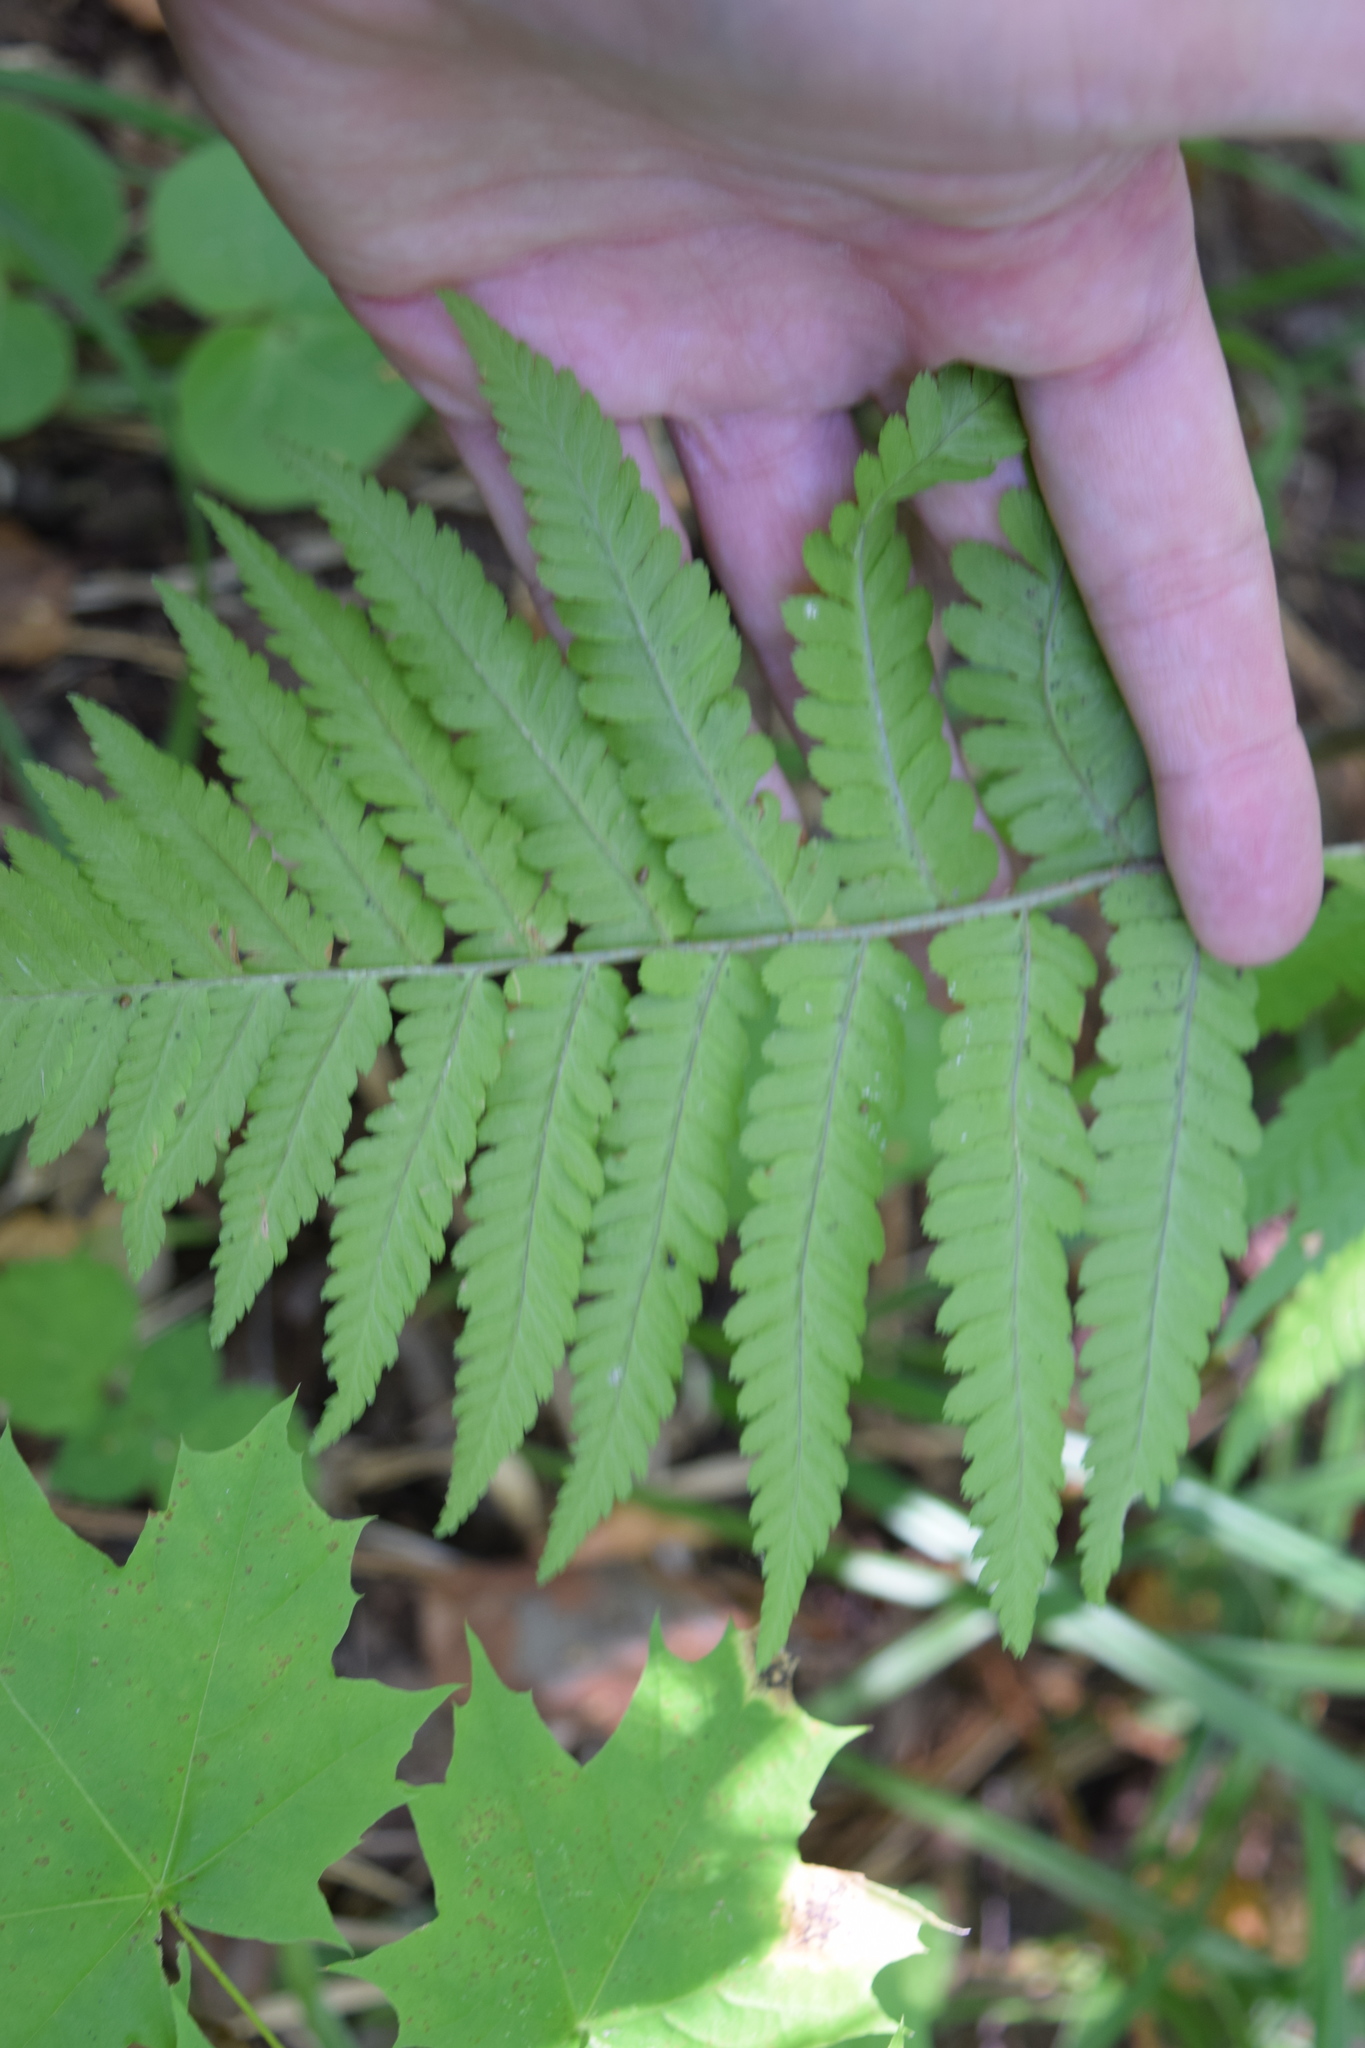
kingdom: Plantae
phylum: Tracheophyta
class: Polypodiopsida
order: Polypodiales
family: Dryopteridaceae
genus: Dryopteris
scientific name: Dryopteris filix-mas
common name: Male fern
